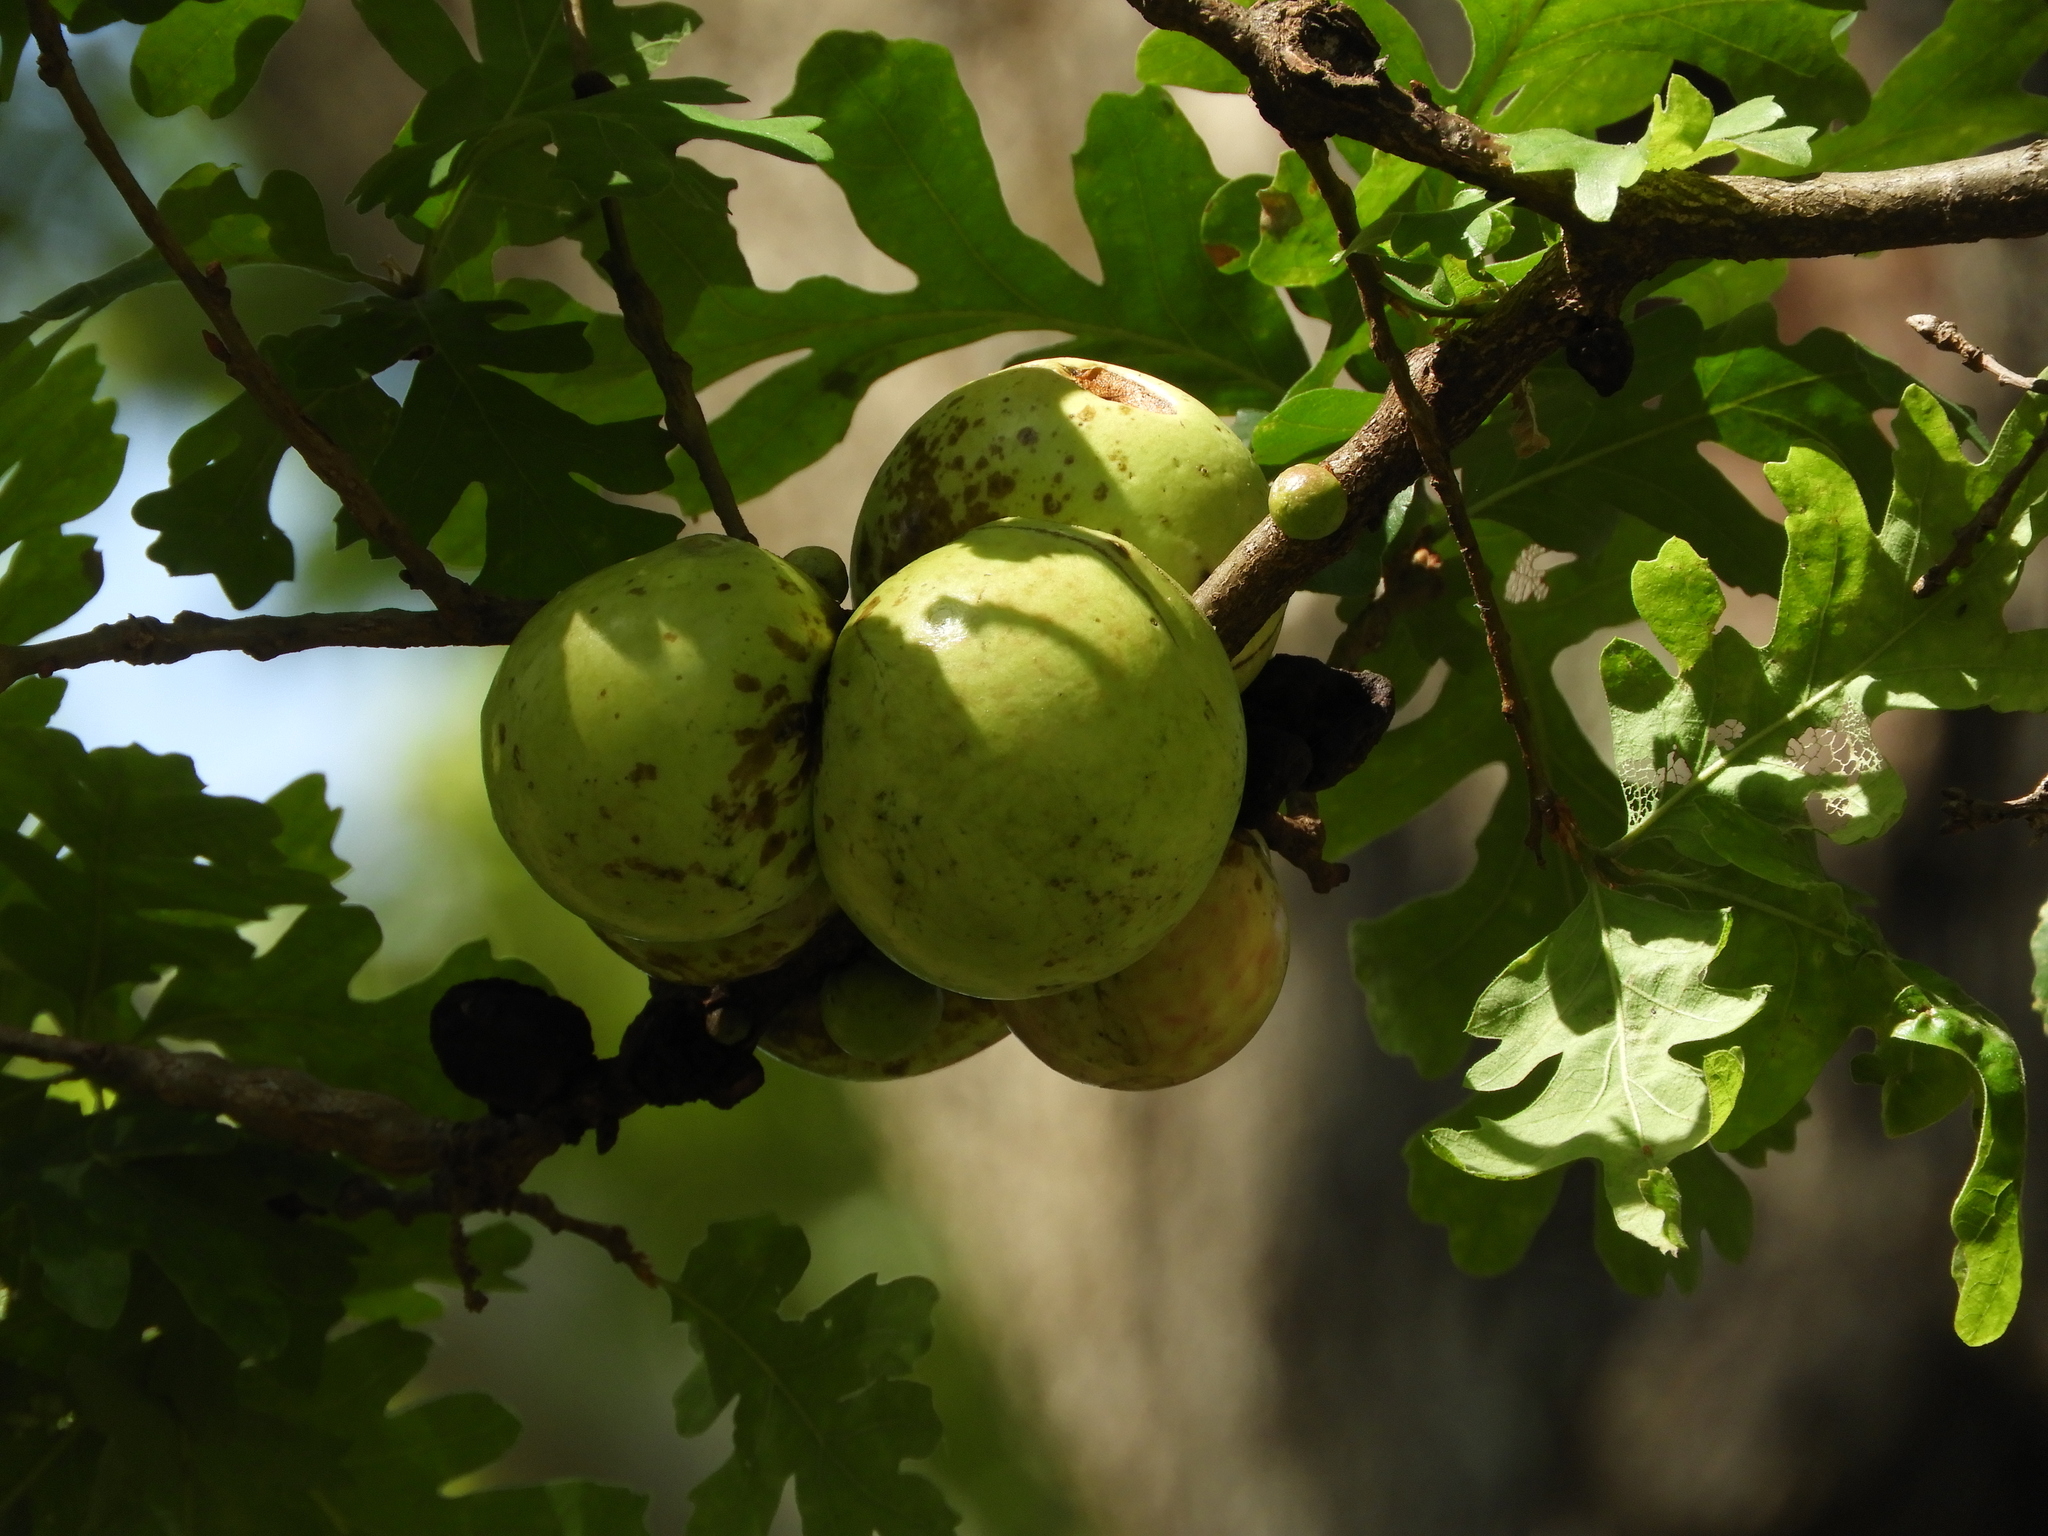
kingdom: Animalia
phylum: Arthropoda
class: Insecta
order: Hymenoptera
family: Cynipidae
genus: Andricus
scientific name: Andricus quercuscalifornicus
